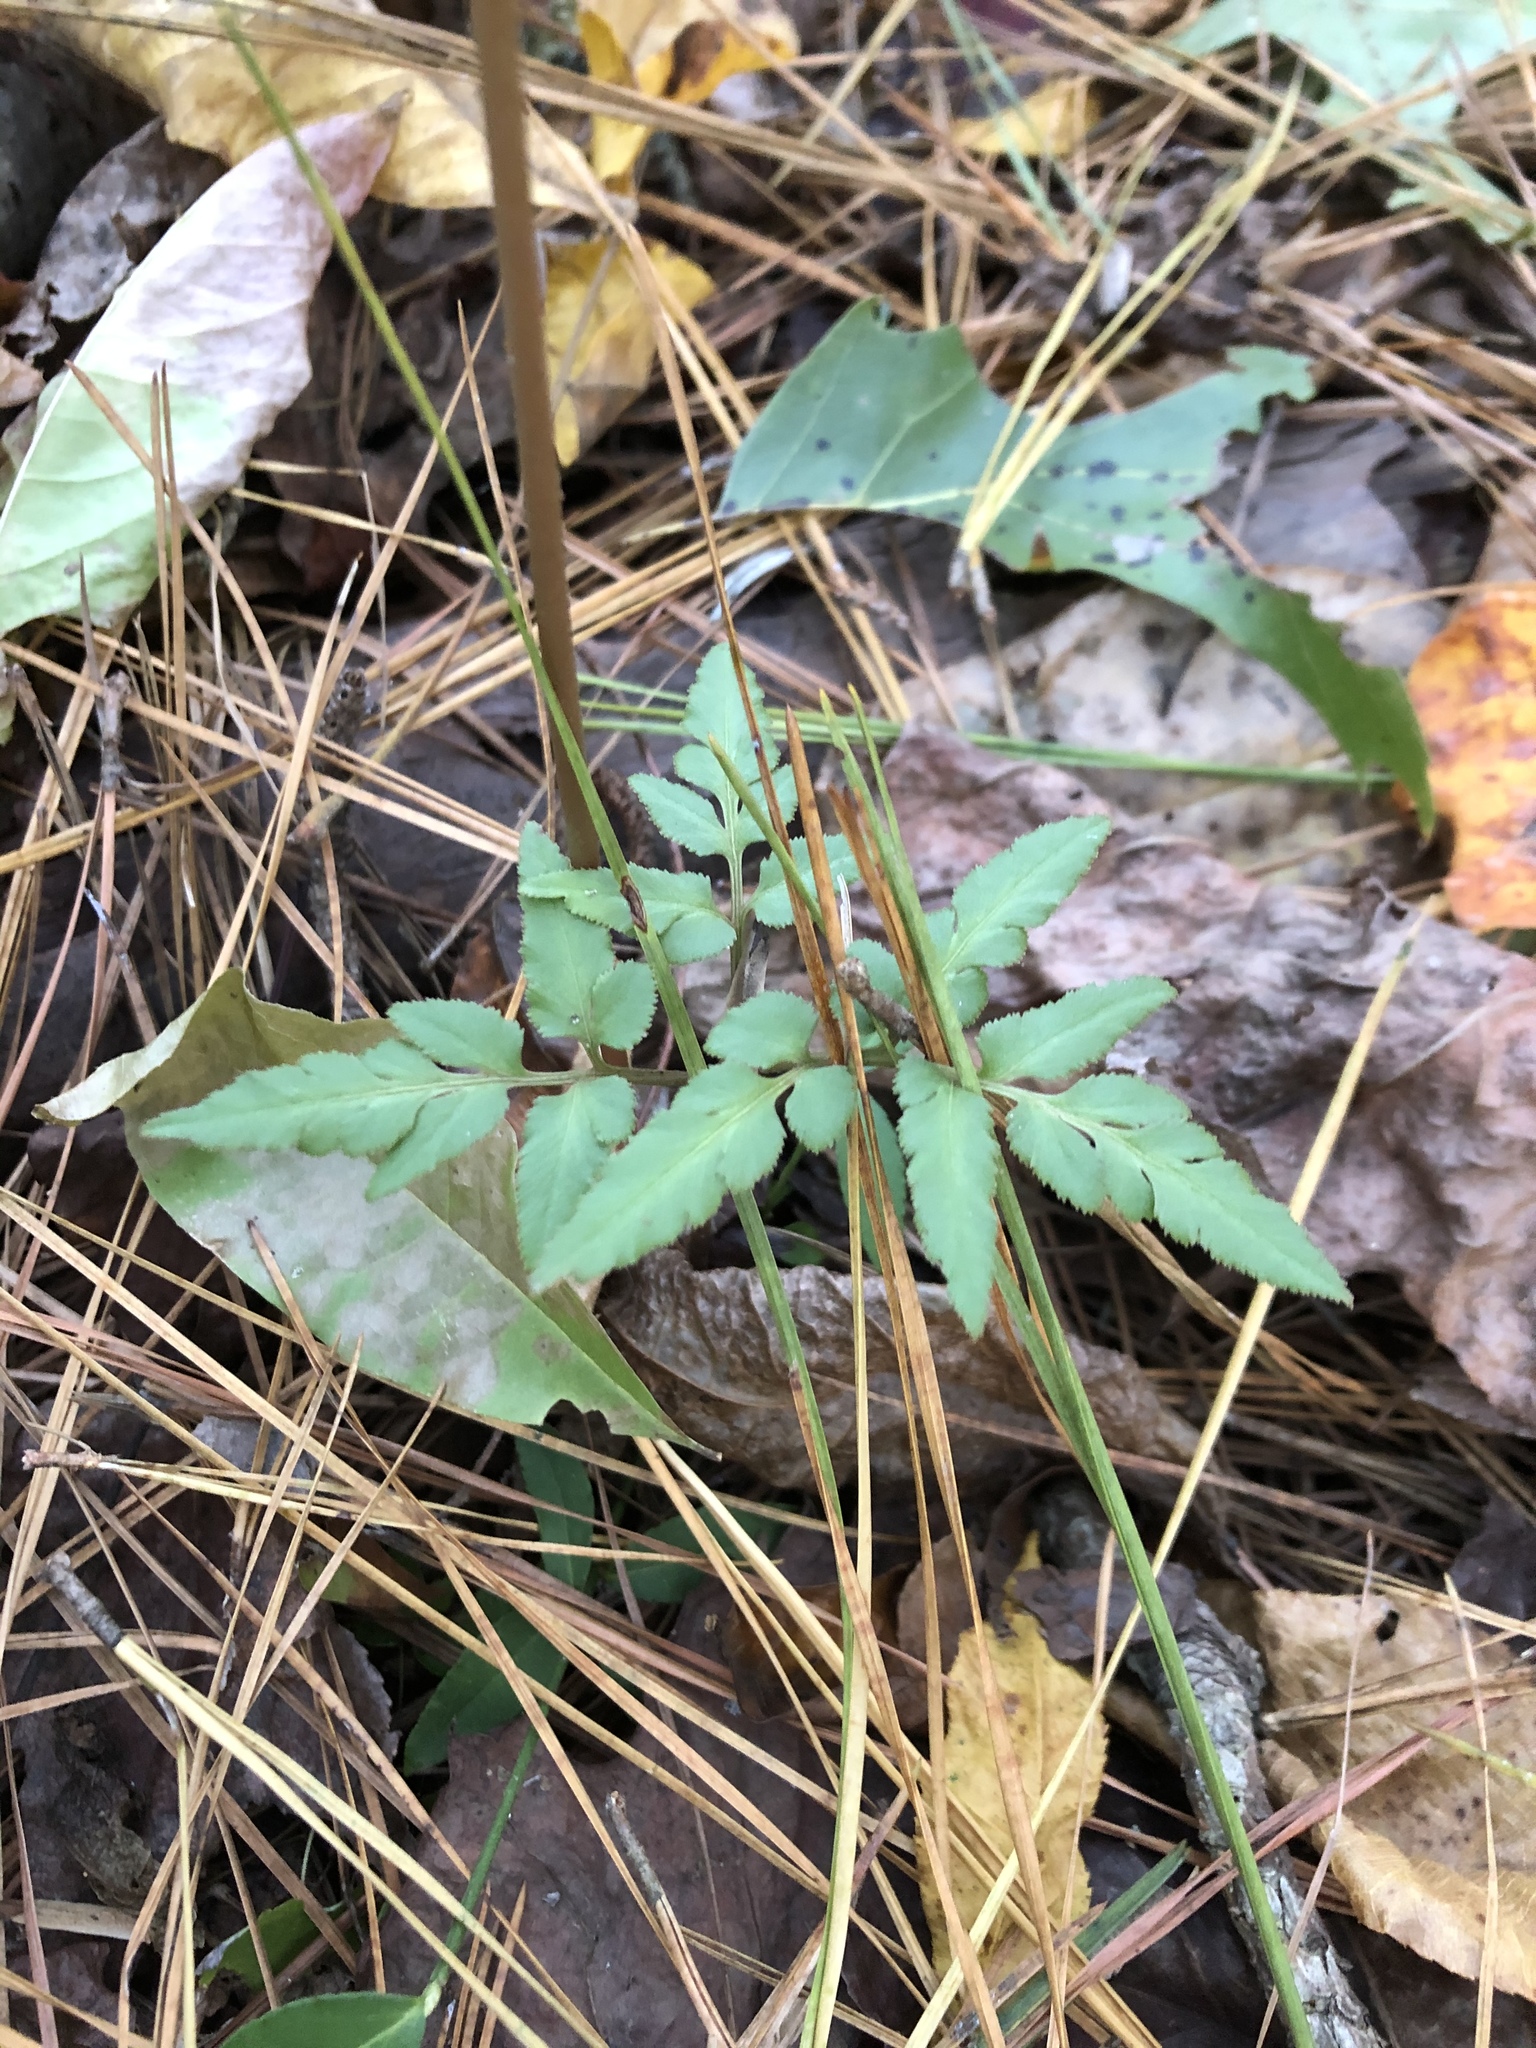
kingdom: Plantae
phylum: Tracheophyta
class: Polypodiopsida
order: Ophioglossales
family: Ophioglossaceae
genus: Sceptridium
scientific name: Sceptridium biternatum
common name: Sparse-lobed grapefern
